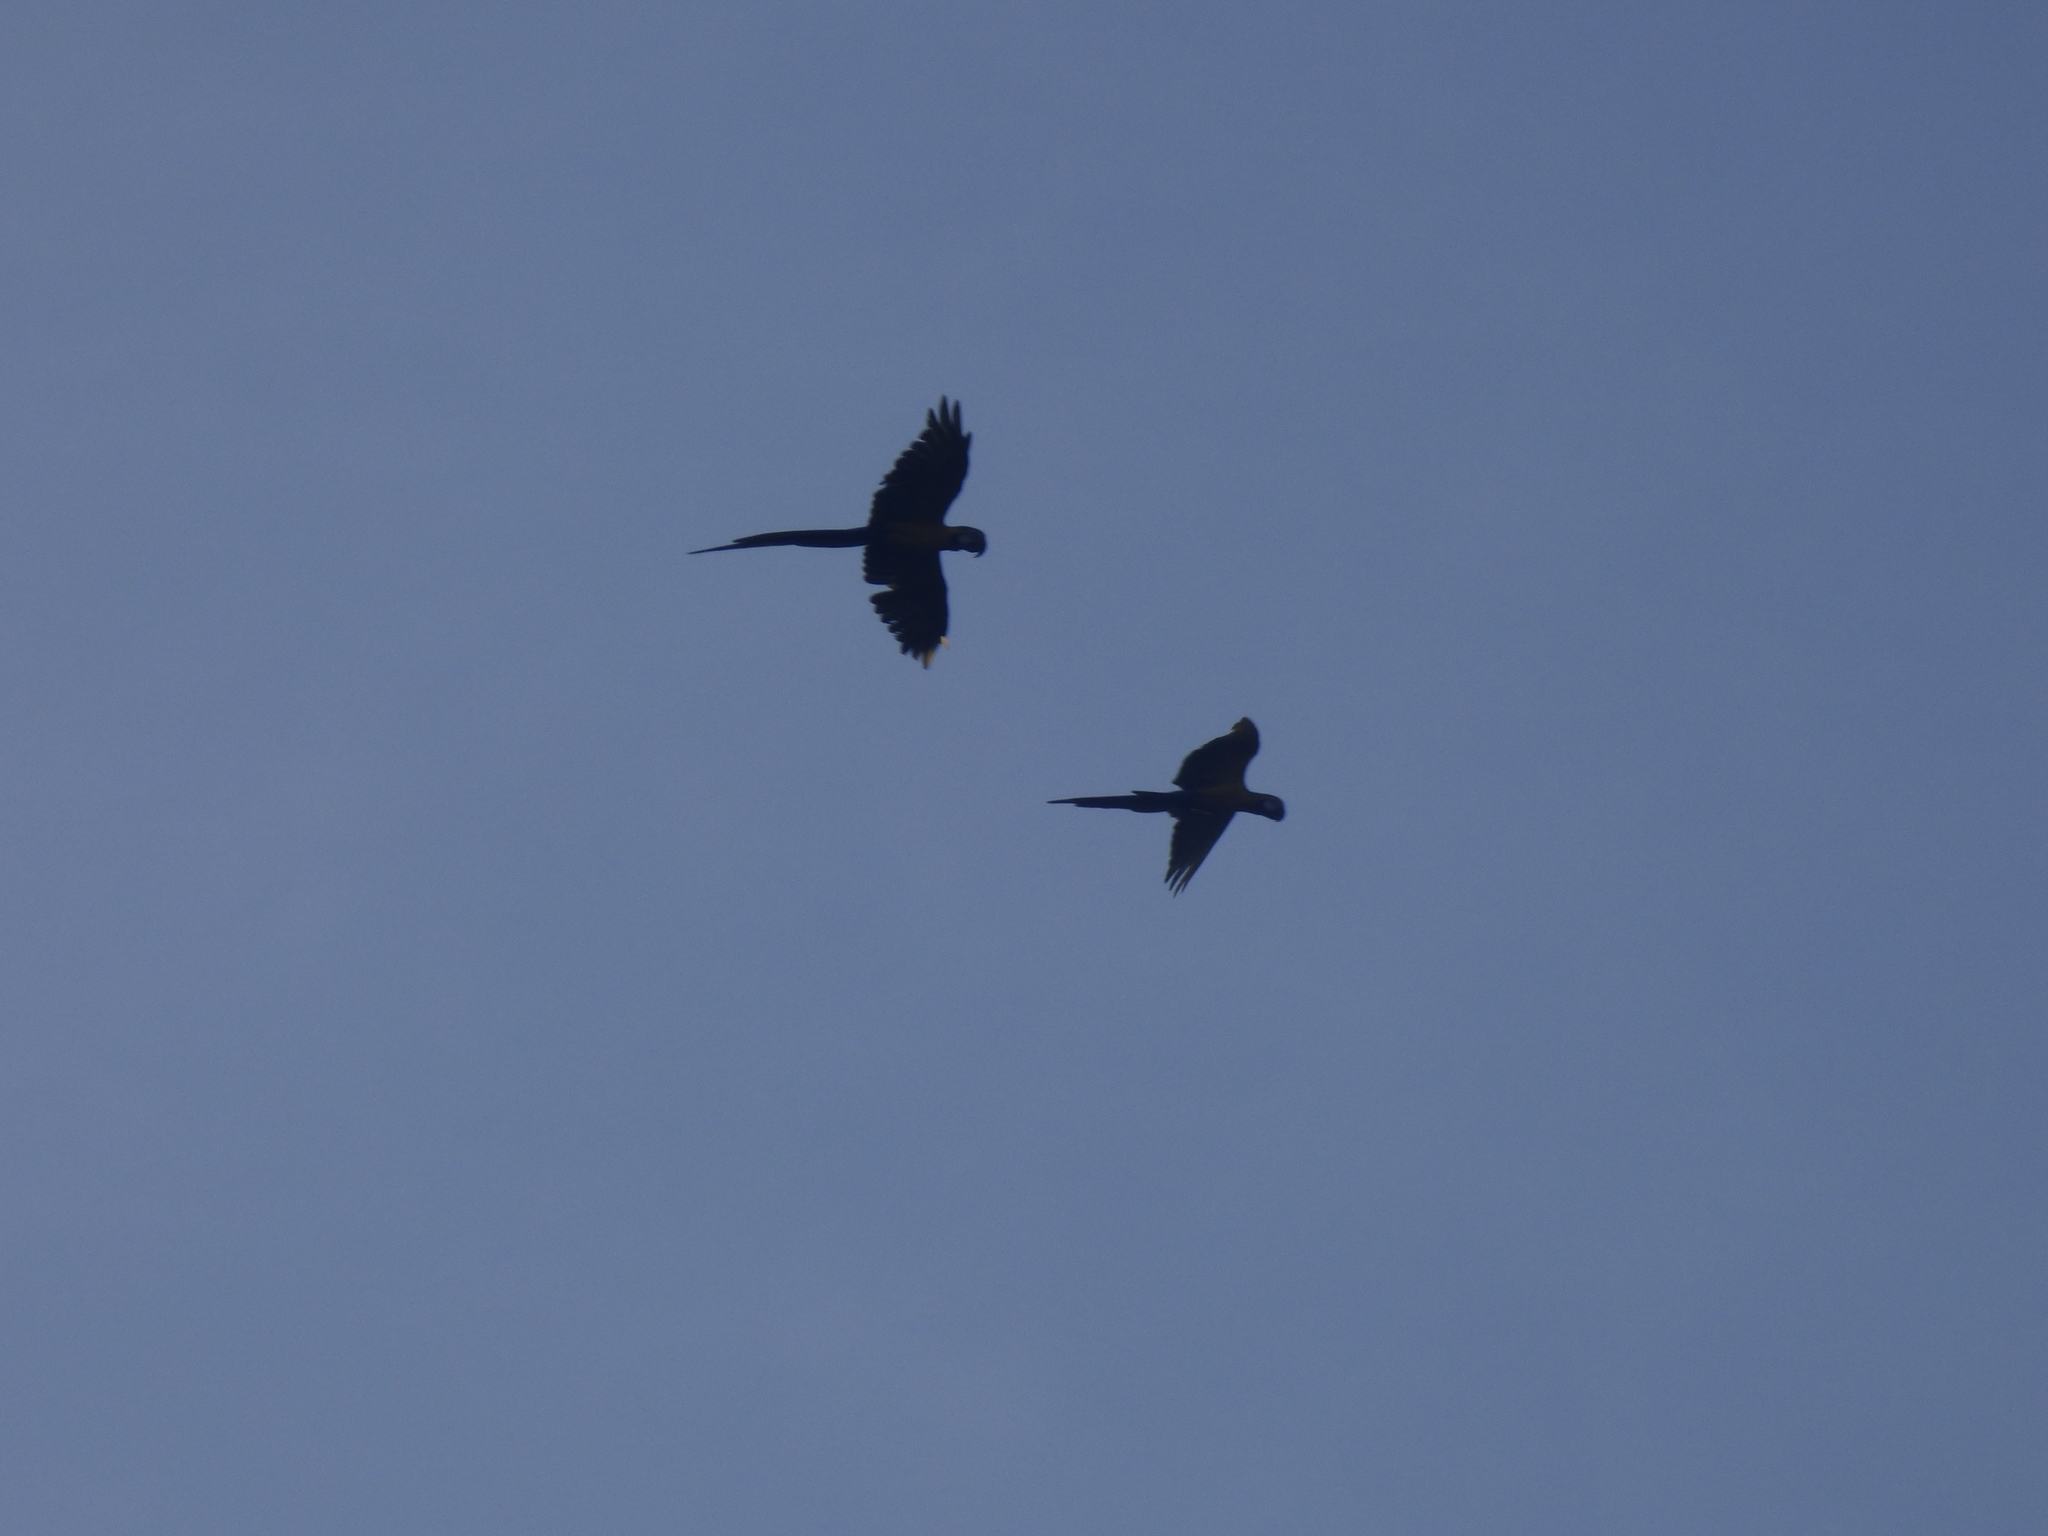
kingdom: Animalia
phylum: Chordata
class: Aves
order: Psittaciformes
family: Psittacidae
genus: Ara
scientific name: Ara ararauna
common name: Blue-and-yellow macaw
